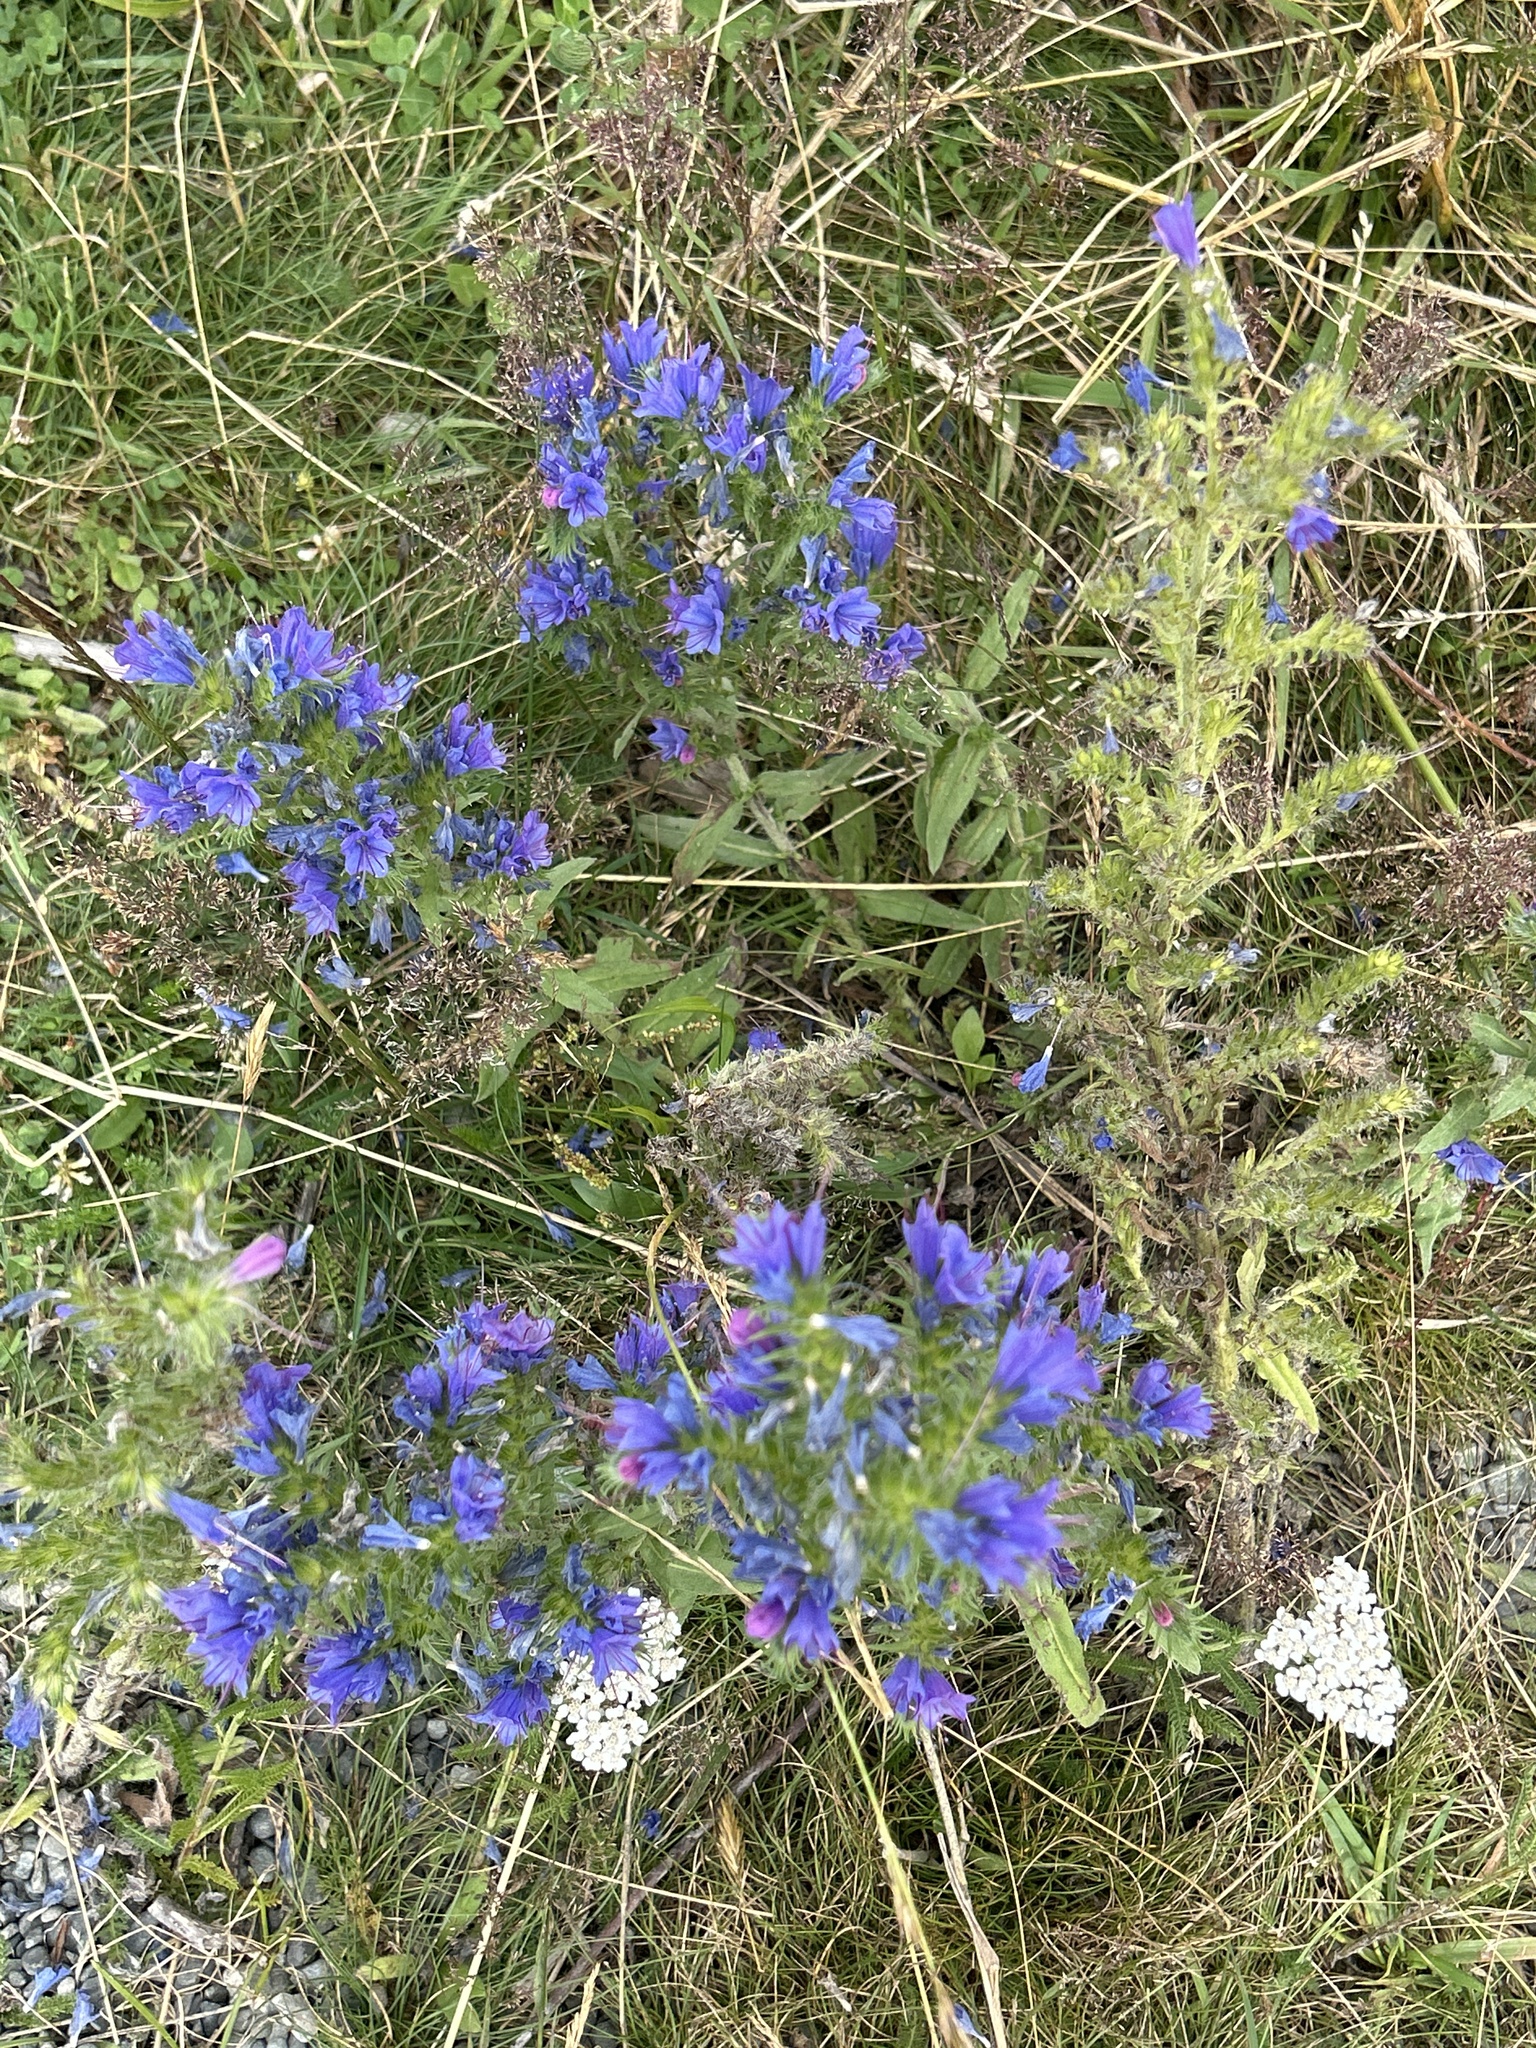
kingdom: Plantae
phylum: Tracheophyta
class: Magnoliopsida
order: Boraginales
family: Boraginaceae
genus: Echium
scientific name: Echium vulgare
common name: Common viper's bugloss
